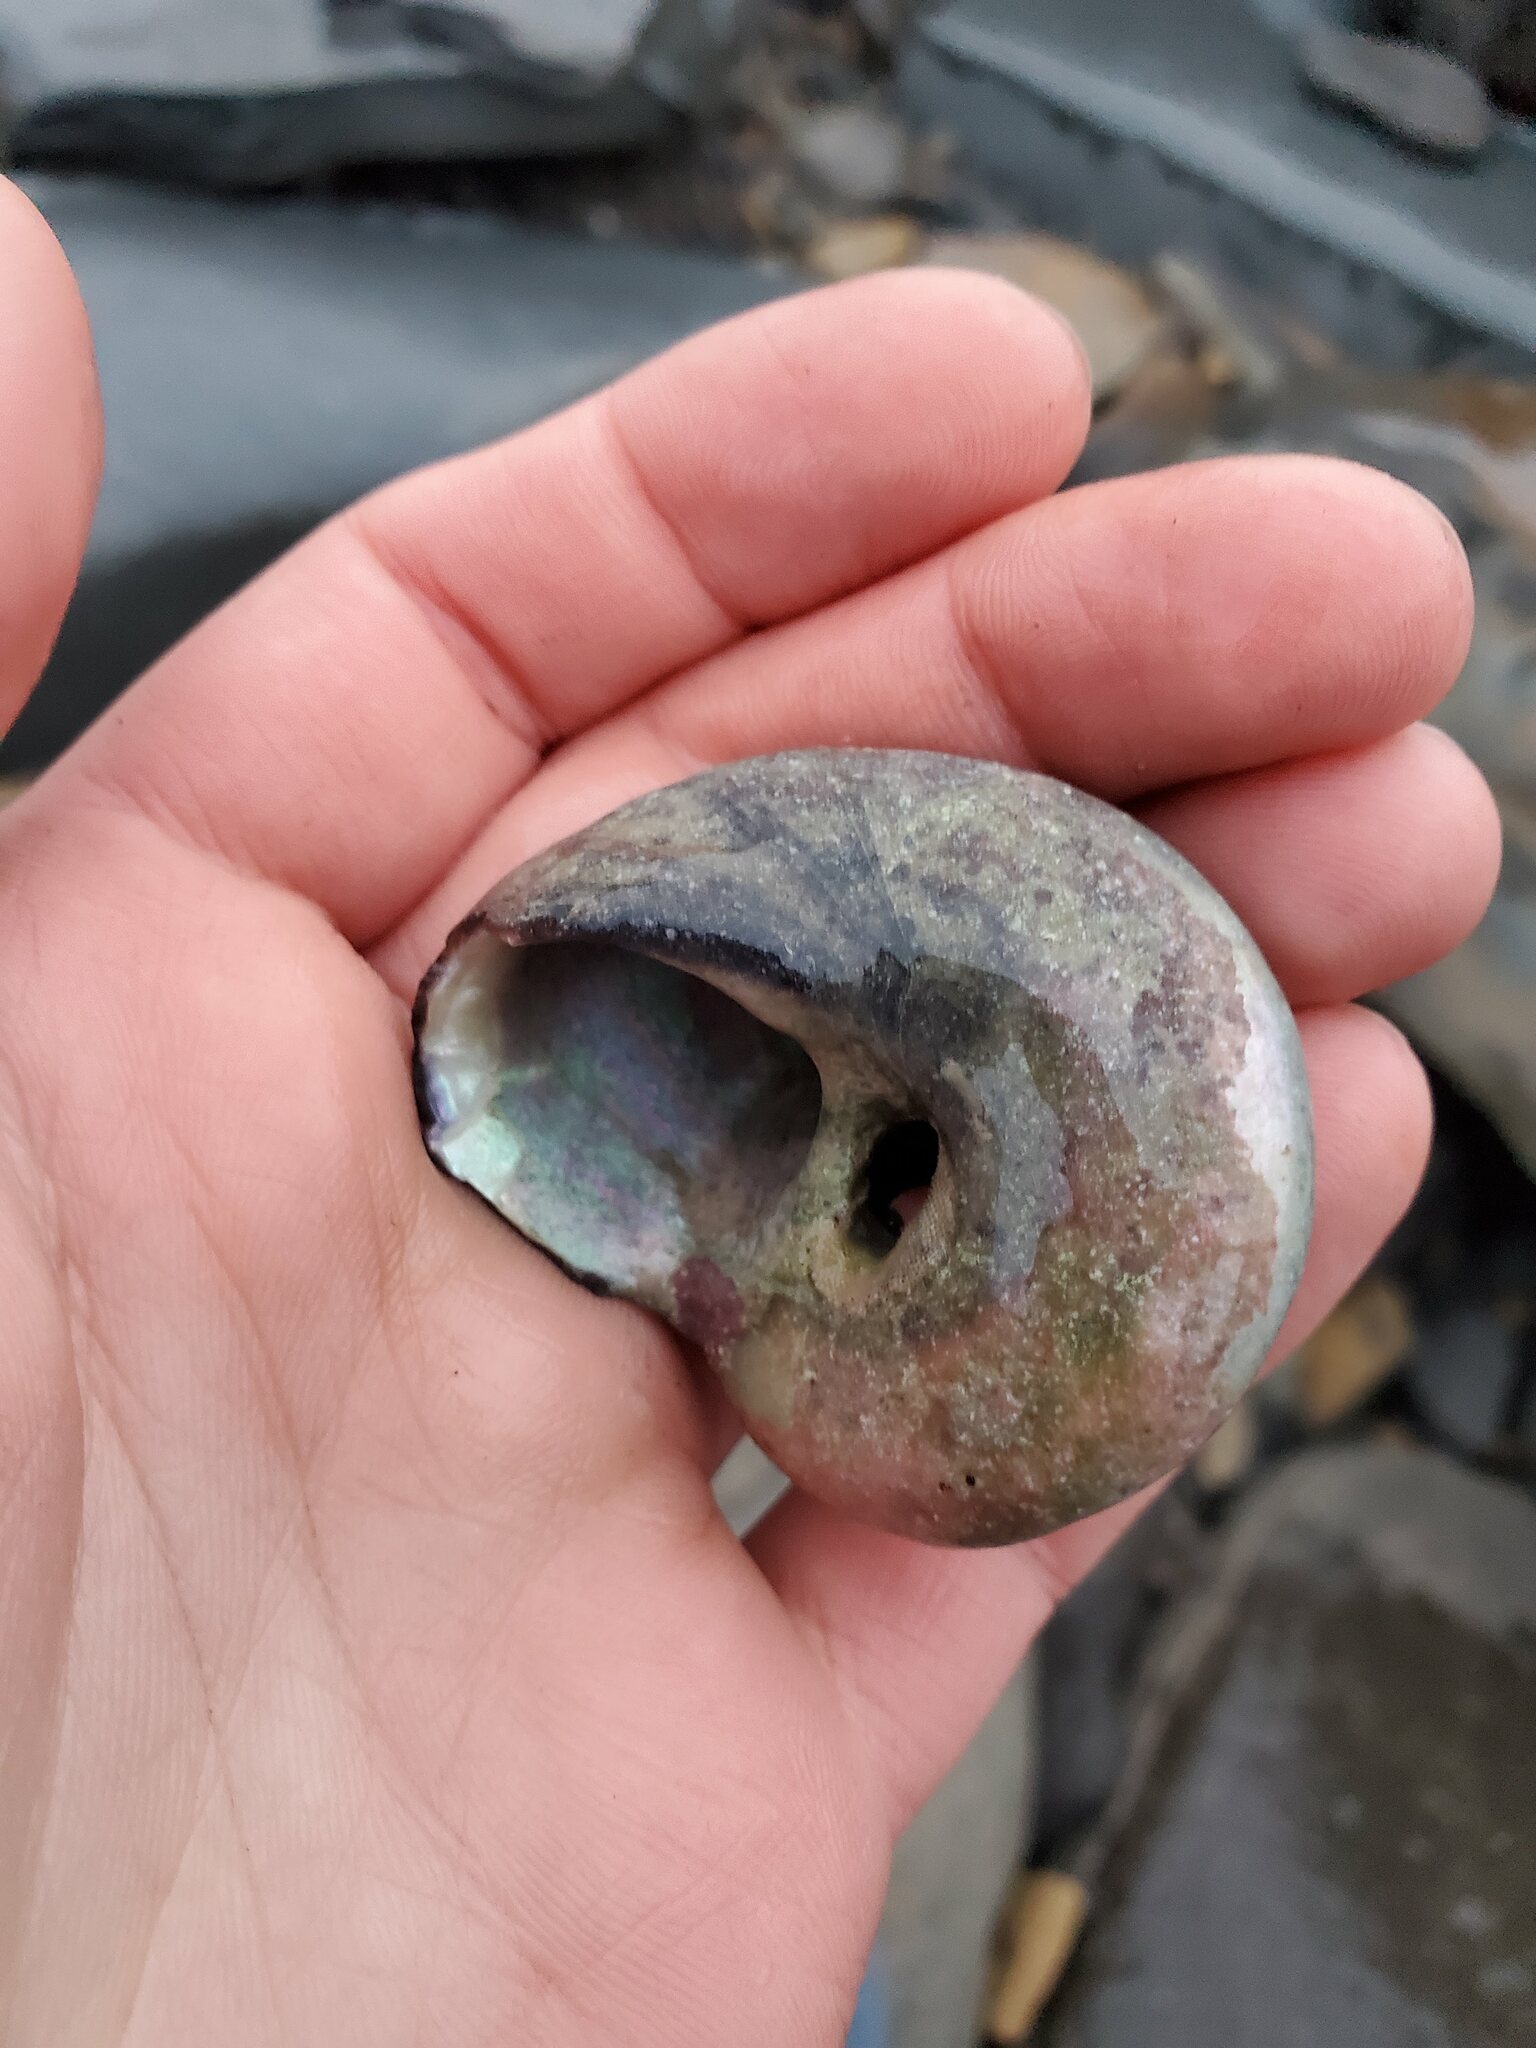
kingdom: Animalia
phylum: Mollusca
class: Gastropoda
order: Trochida
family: Tegulidae
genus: Norrisia
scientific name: Norrisia norrisii
